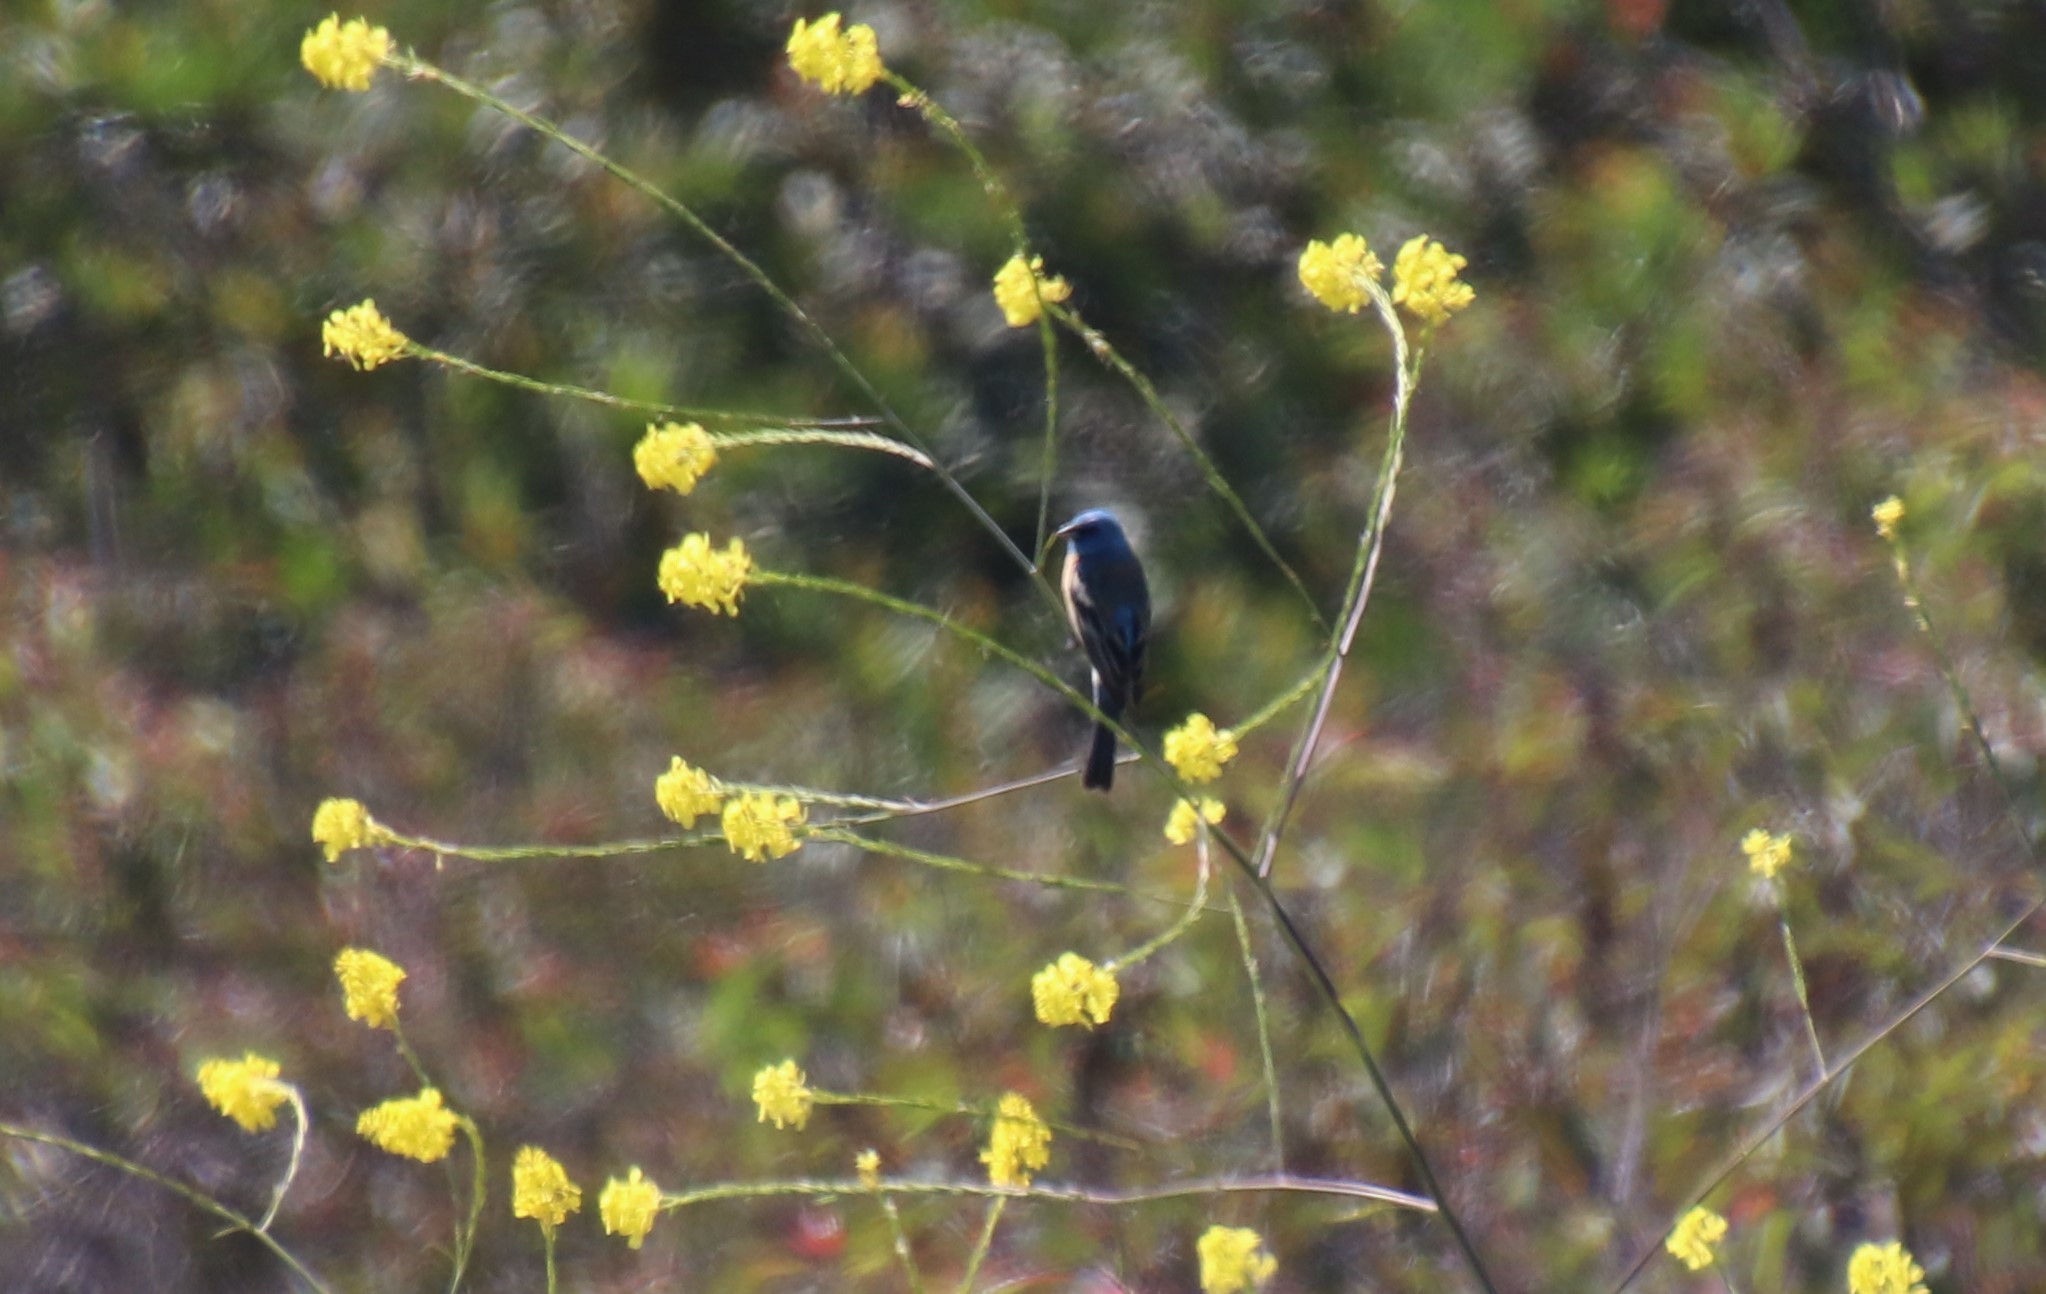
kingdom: Animalia
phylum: Chordata
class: Aves
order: Passeriformes
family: Cardinalidae
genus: Passerina
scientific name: Passerina amoena
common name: Lazuli bunting
